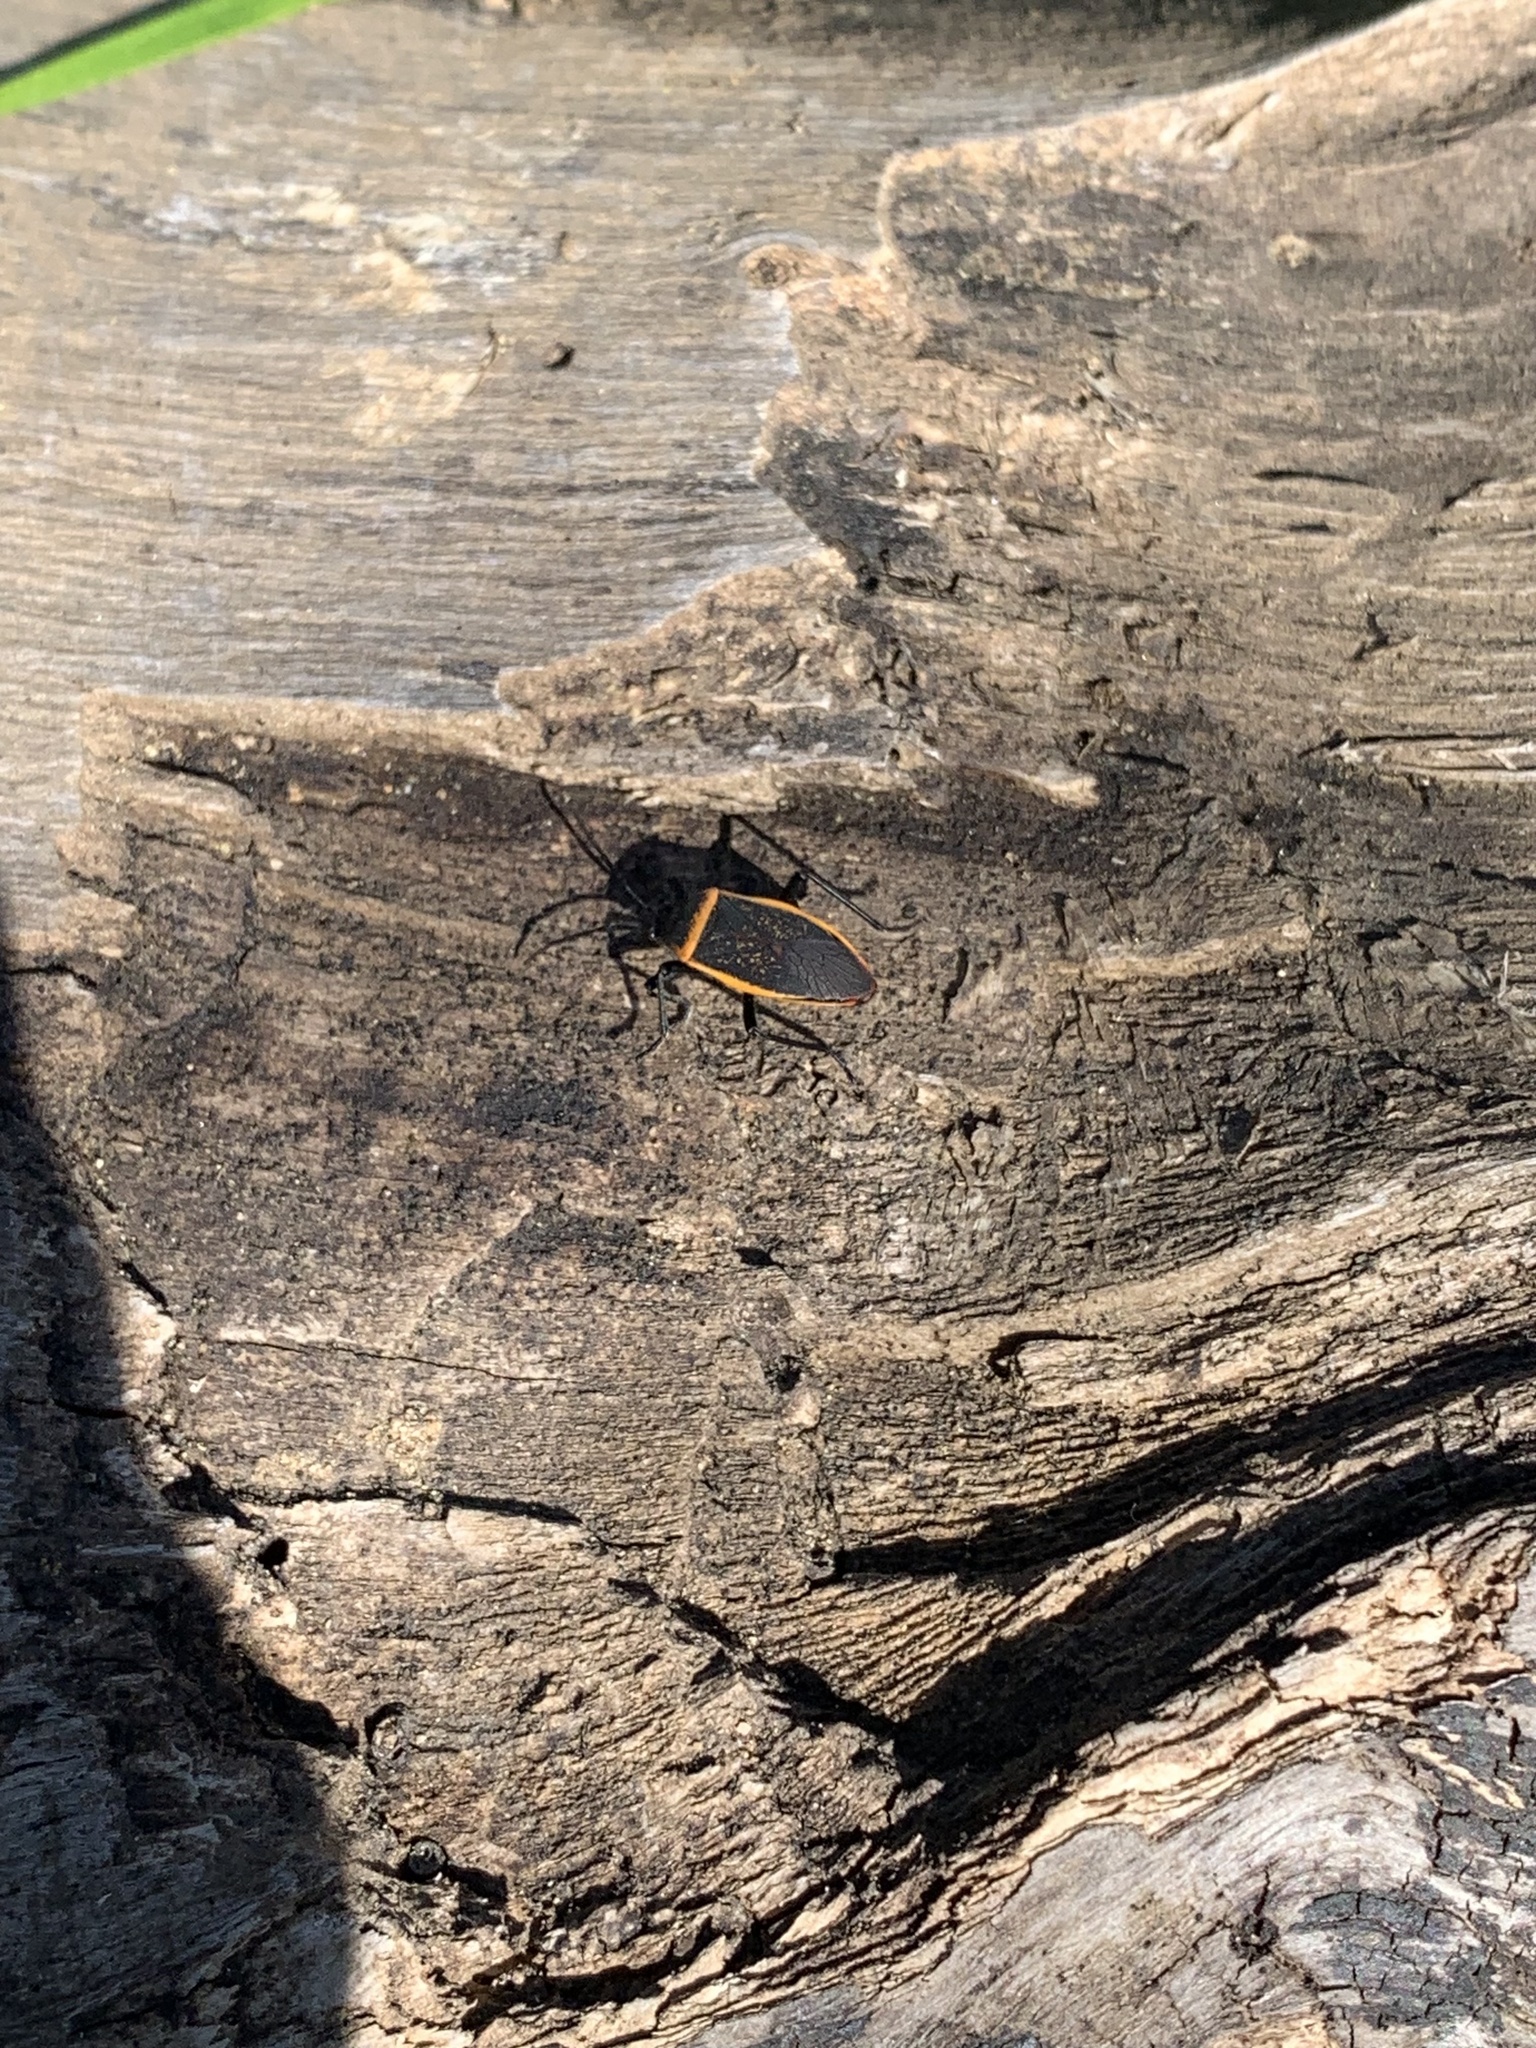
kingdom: Animalia
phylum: Arthropoda
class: Insecta
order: Hemiptera
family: Largidae
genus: Largus
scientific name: Largus californicus
